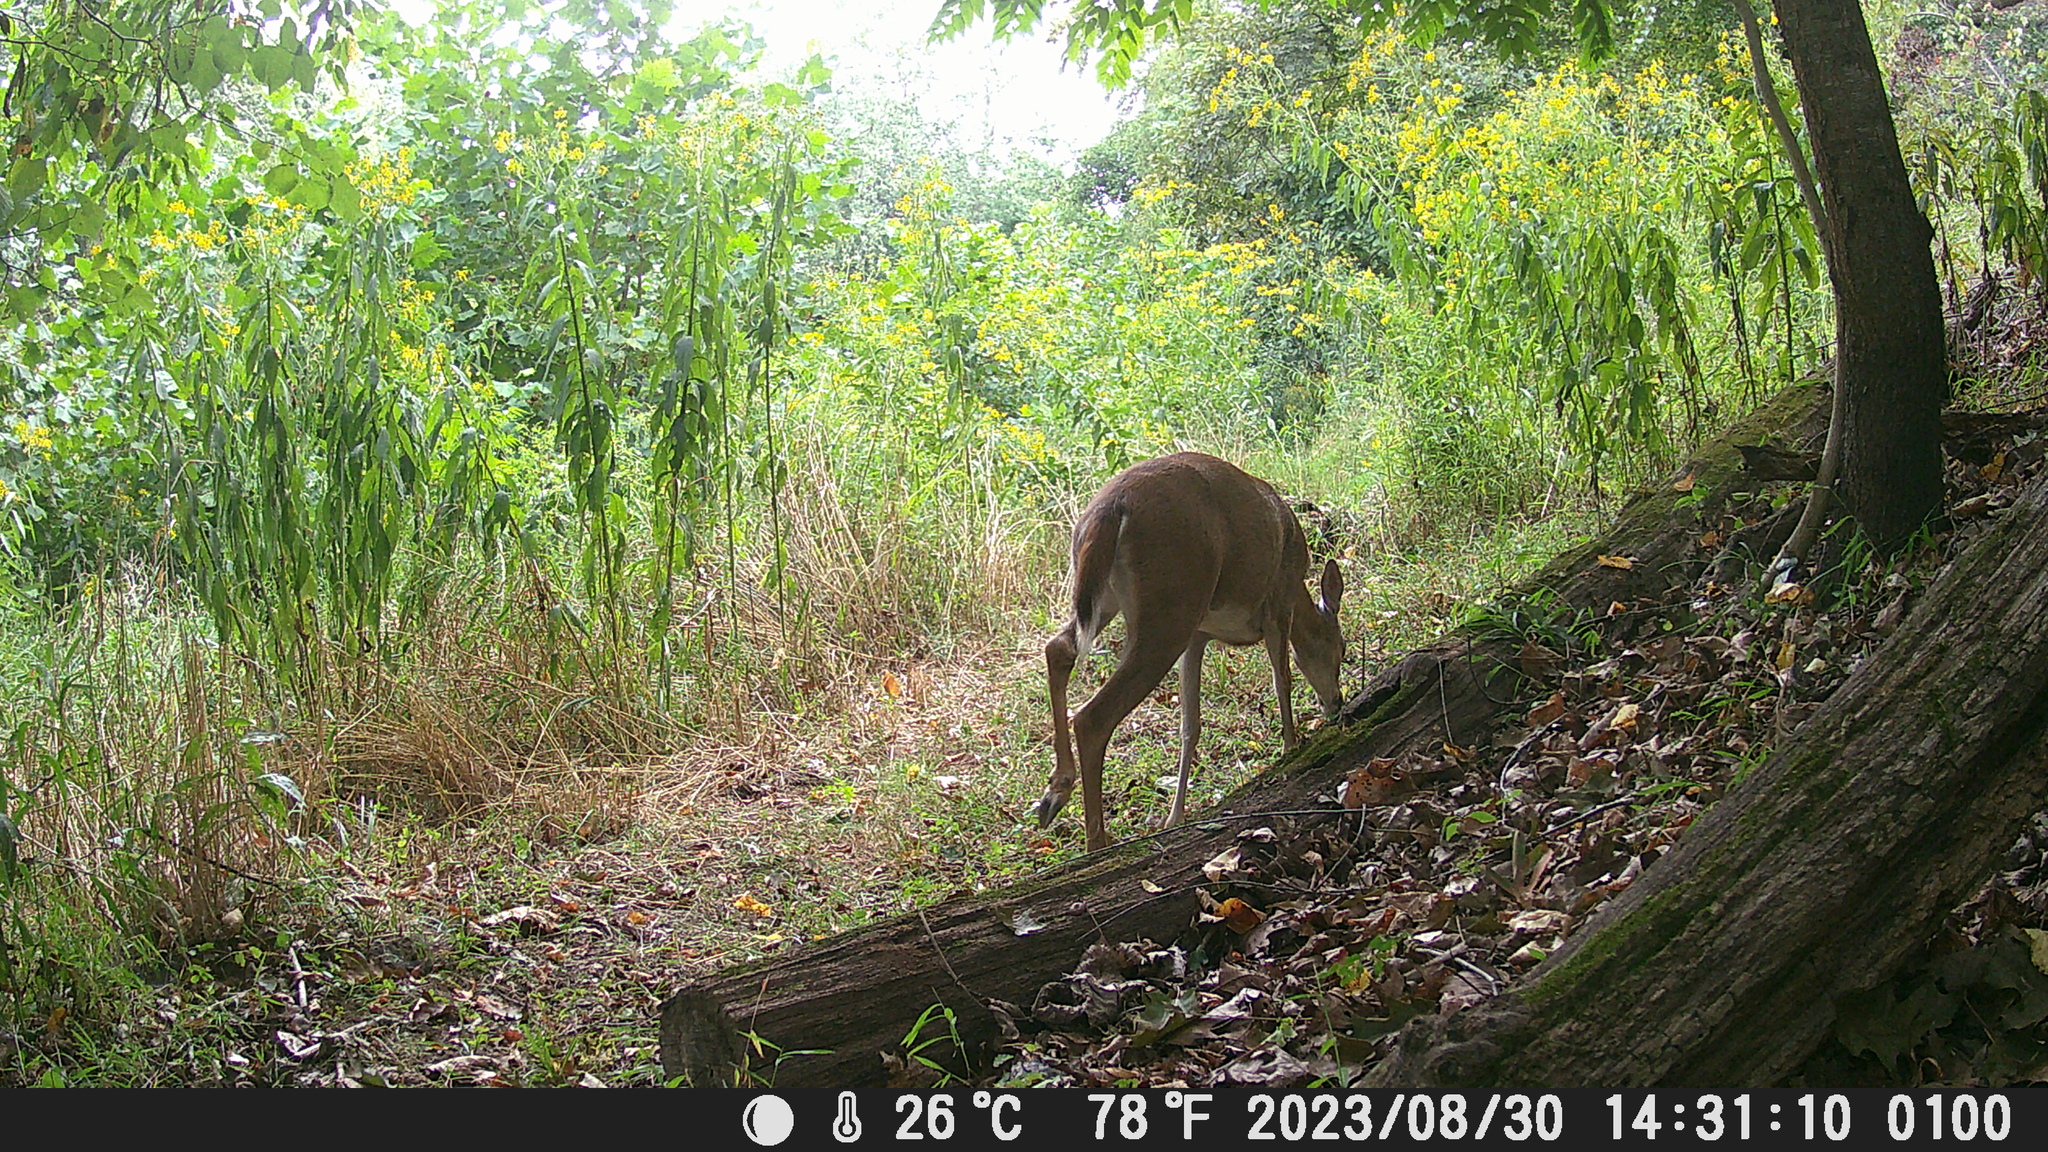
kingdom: Animalia
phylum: Chordata
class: Mammalia
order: Artiodactyla
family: Cervidae
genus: Odocoileus
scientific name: Odocoileus virginianus
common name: White-tailed deer
